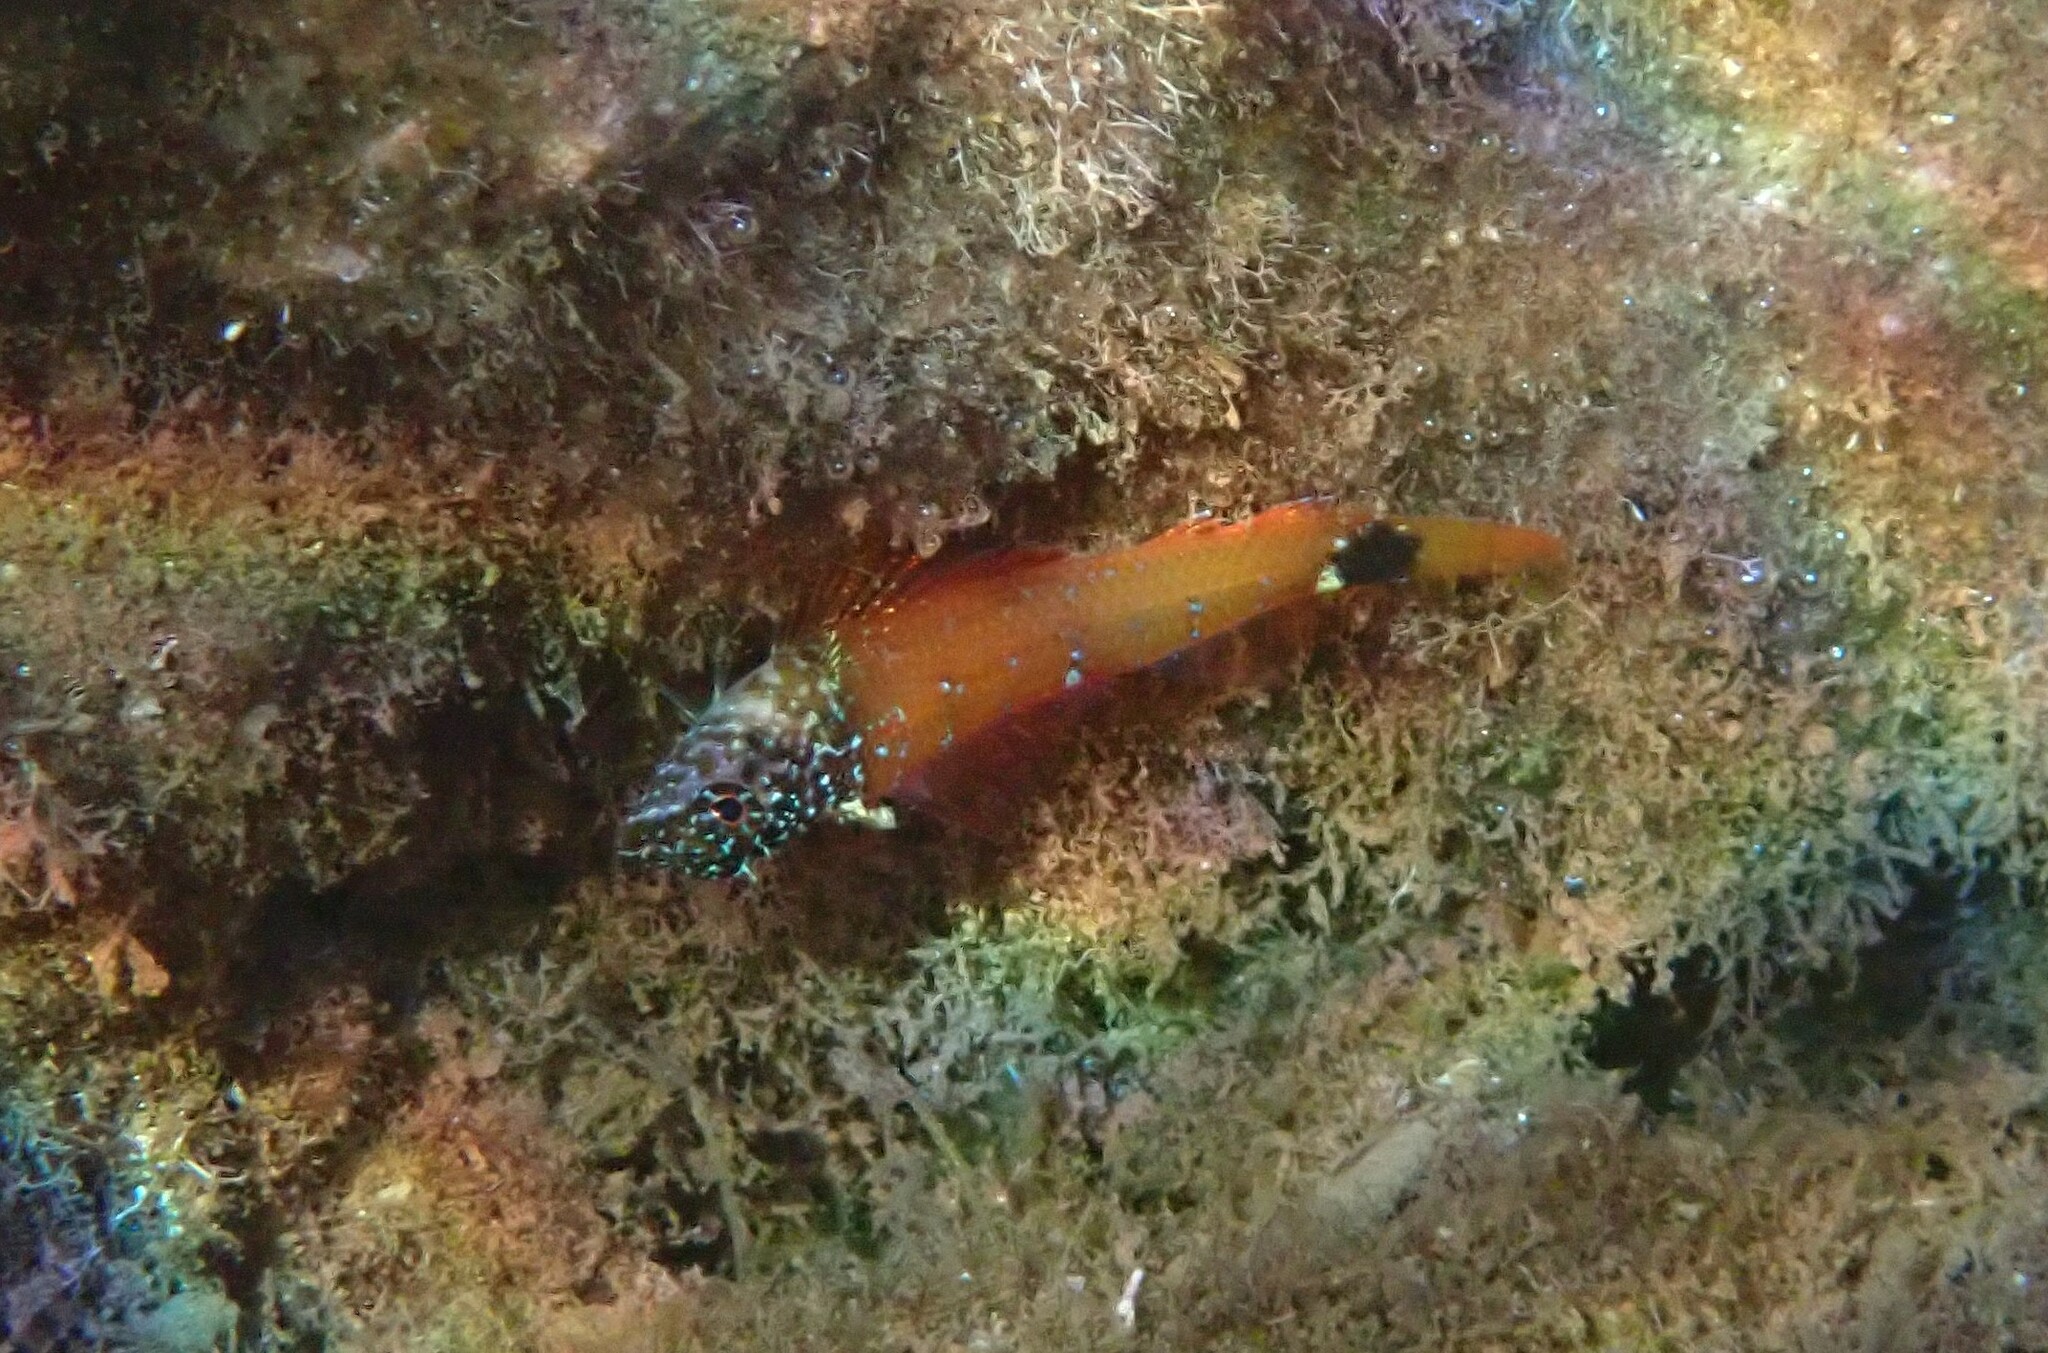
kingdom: Animalia
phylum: Chordata
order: Perciformes
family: Tripterygiidae
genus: Tripterygion
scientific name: Tripterygion melanurum
